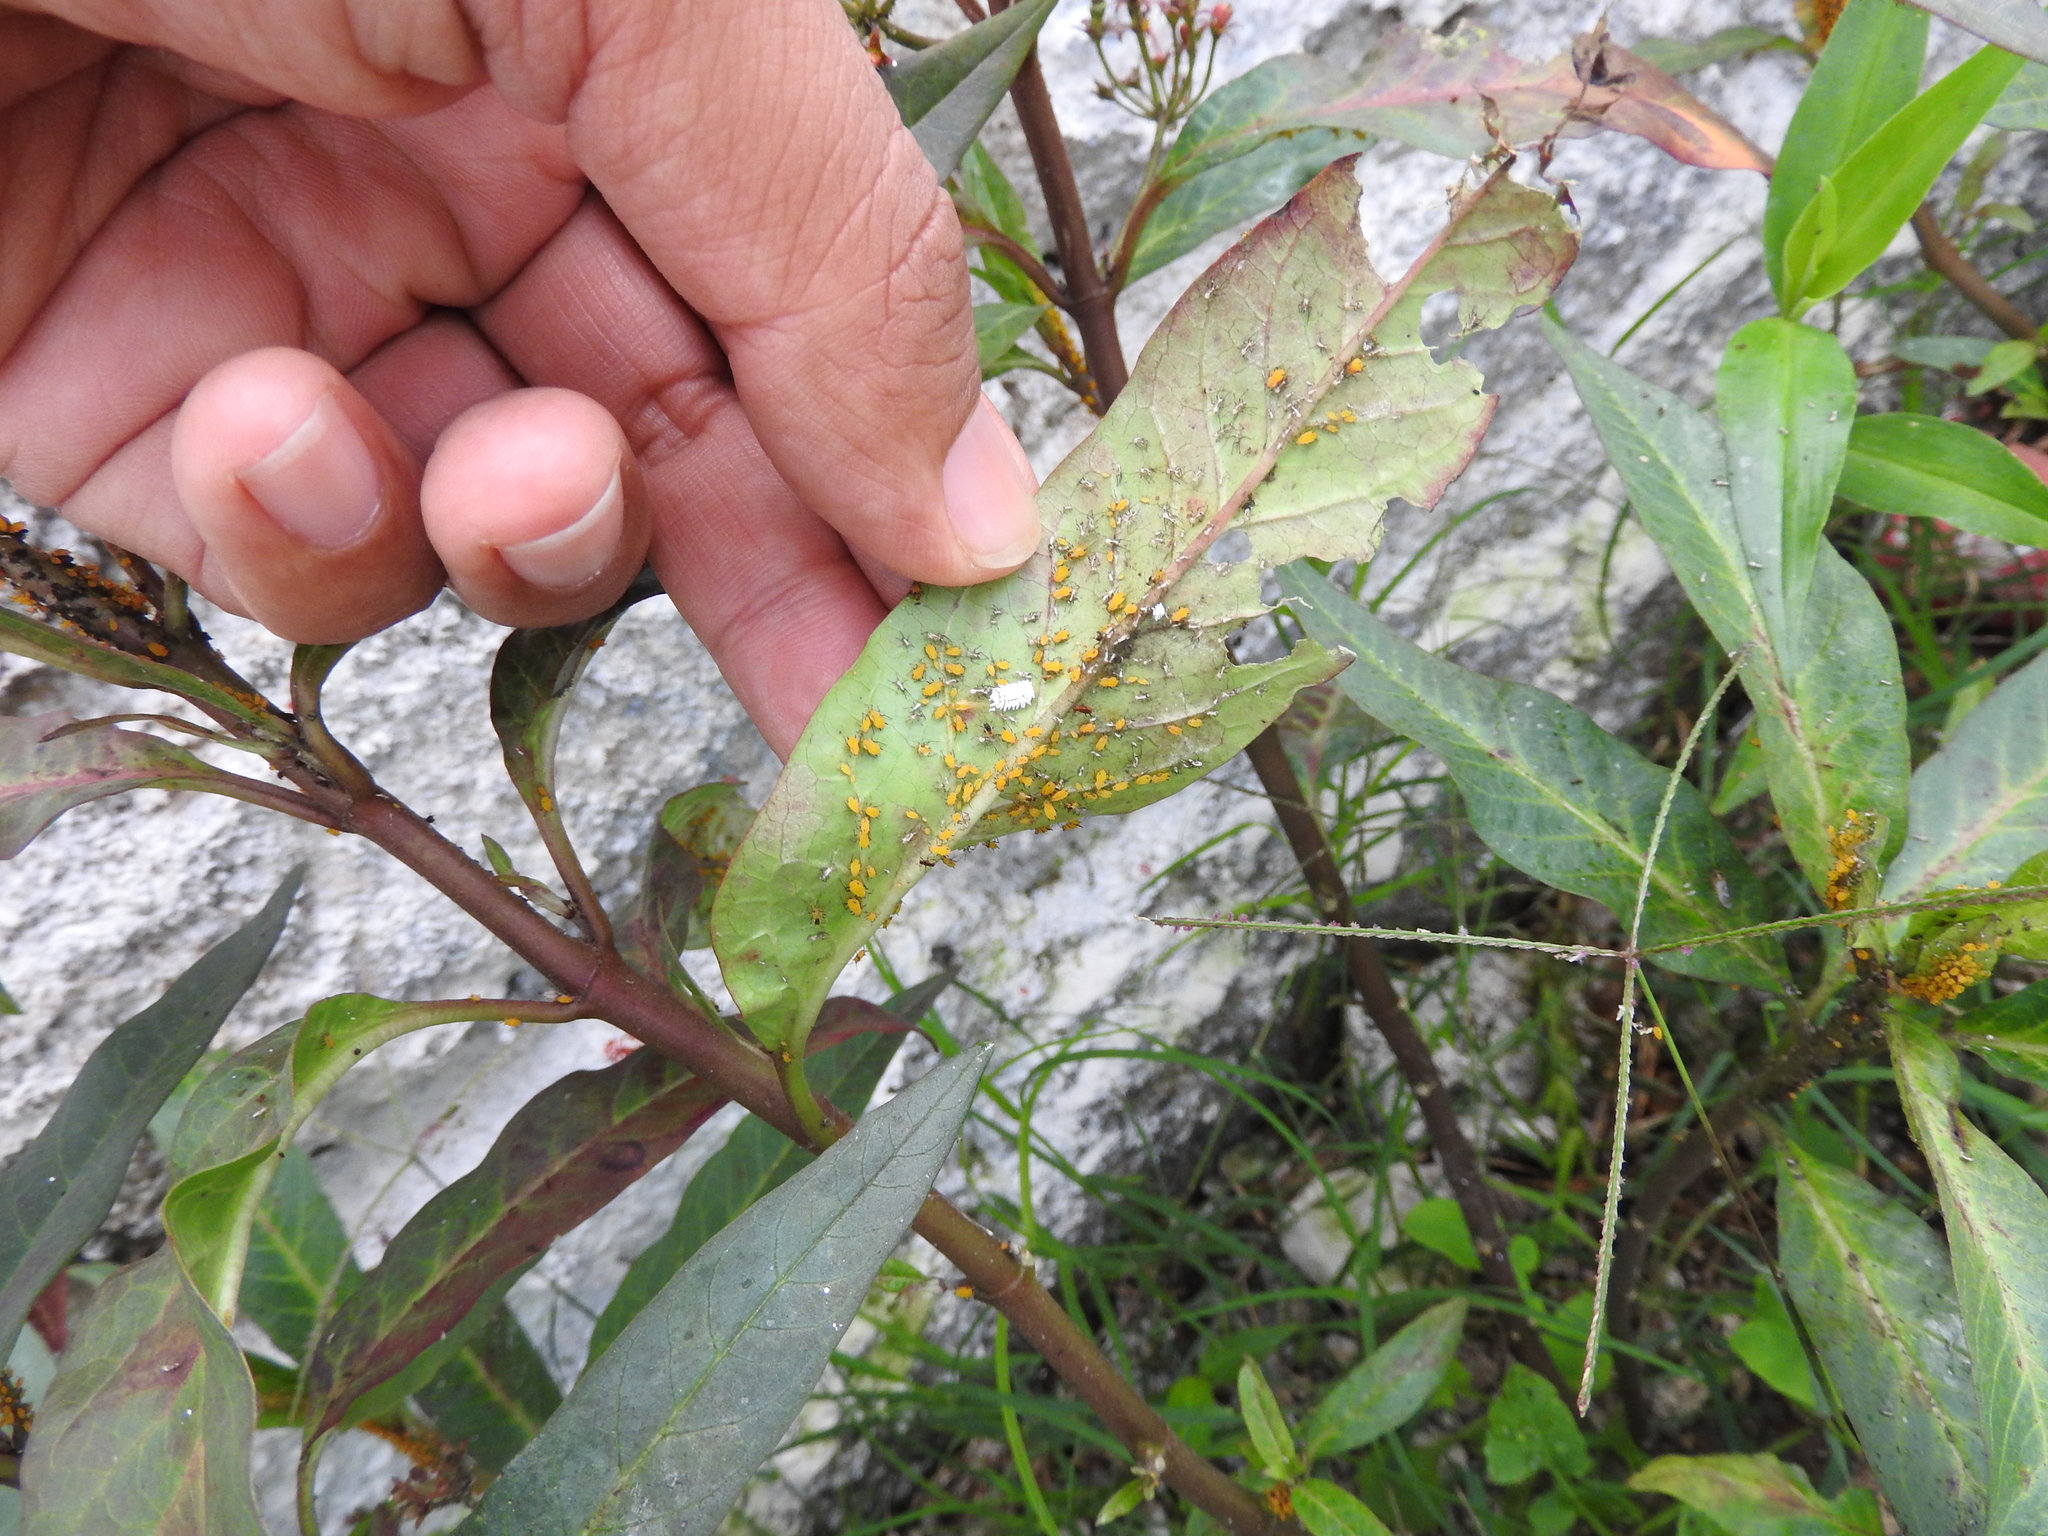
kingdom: Animalia
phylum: Arthropoda
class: Insecta
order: Hemiptera
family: Aphididae
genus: Aphis
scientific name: Aphis nerii
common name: Oleander aphid
